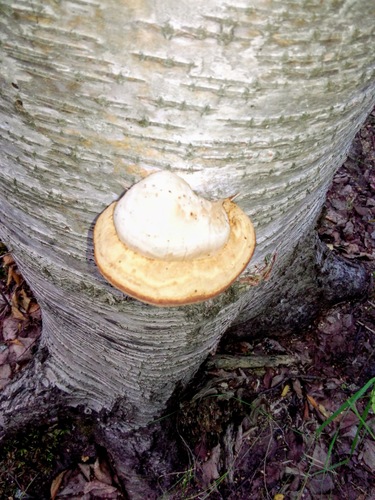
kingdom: Fungi
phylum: Basidiomycota
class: Agaricomycetes
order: Polyporales
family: Polyporaceae
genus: Fomes
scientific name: Fomes fomentarius
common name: Hoof fungus
